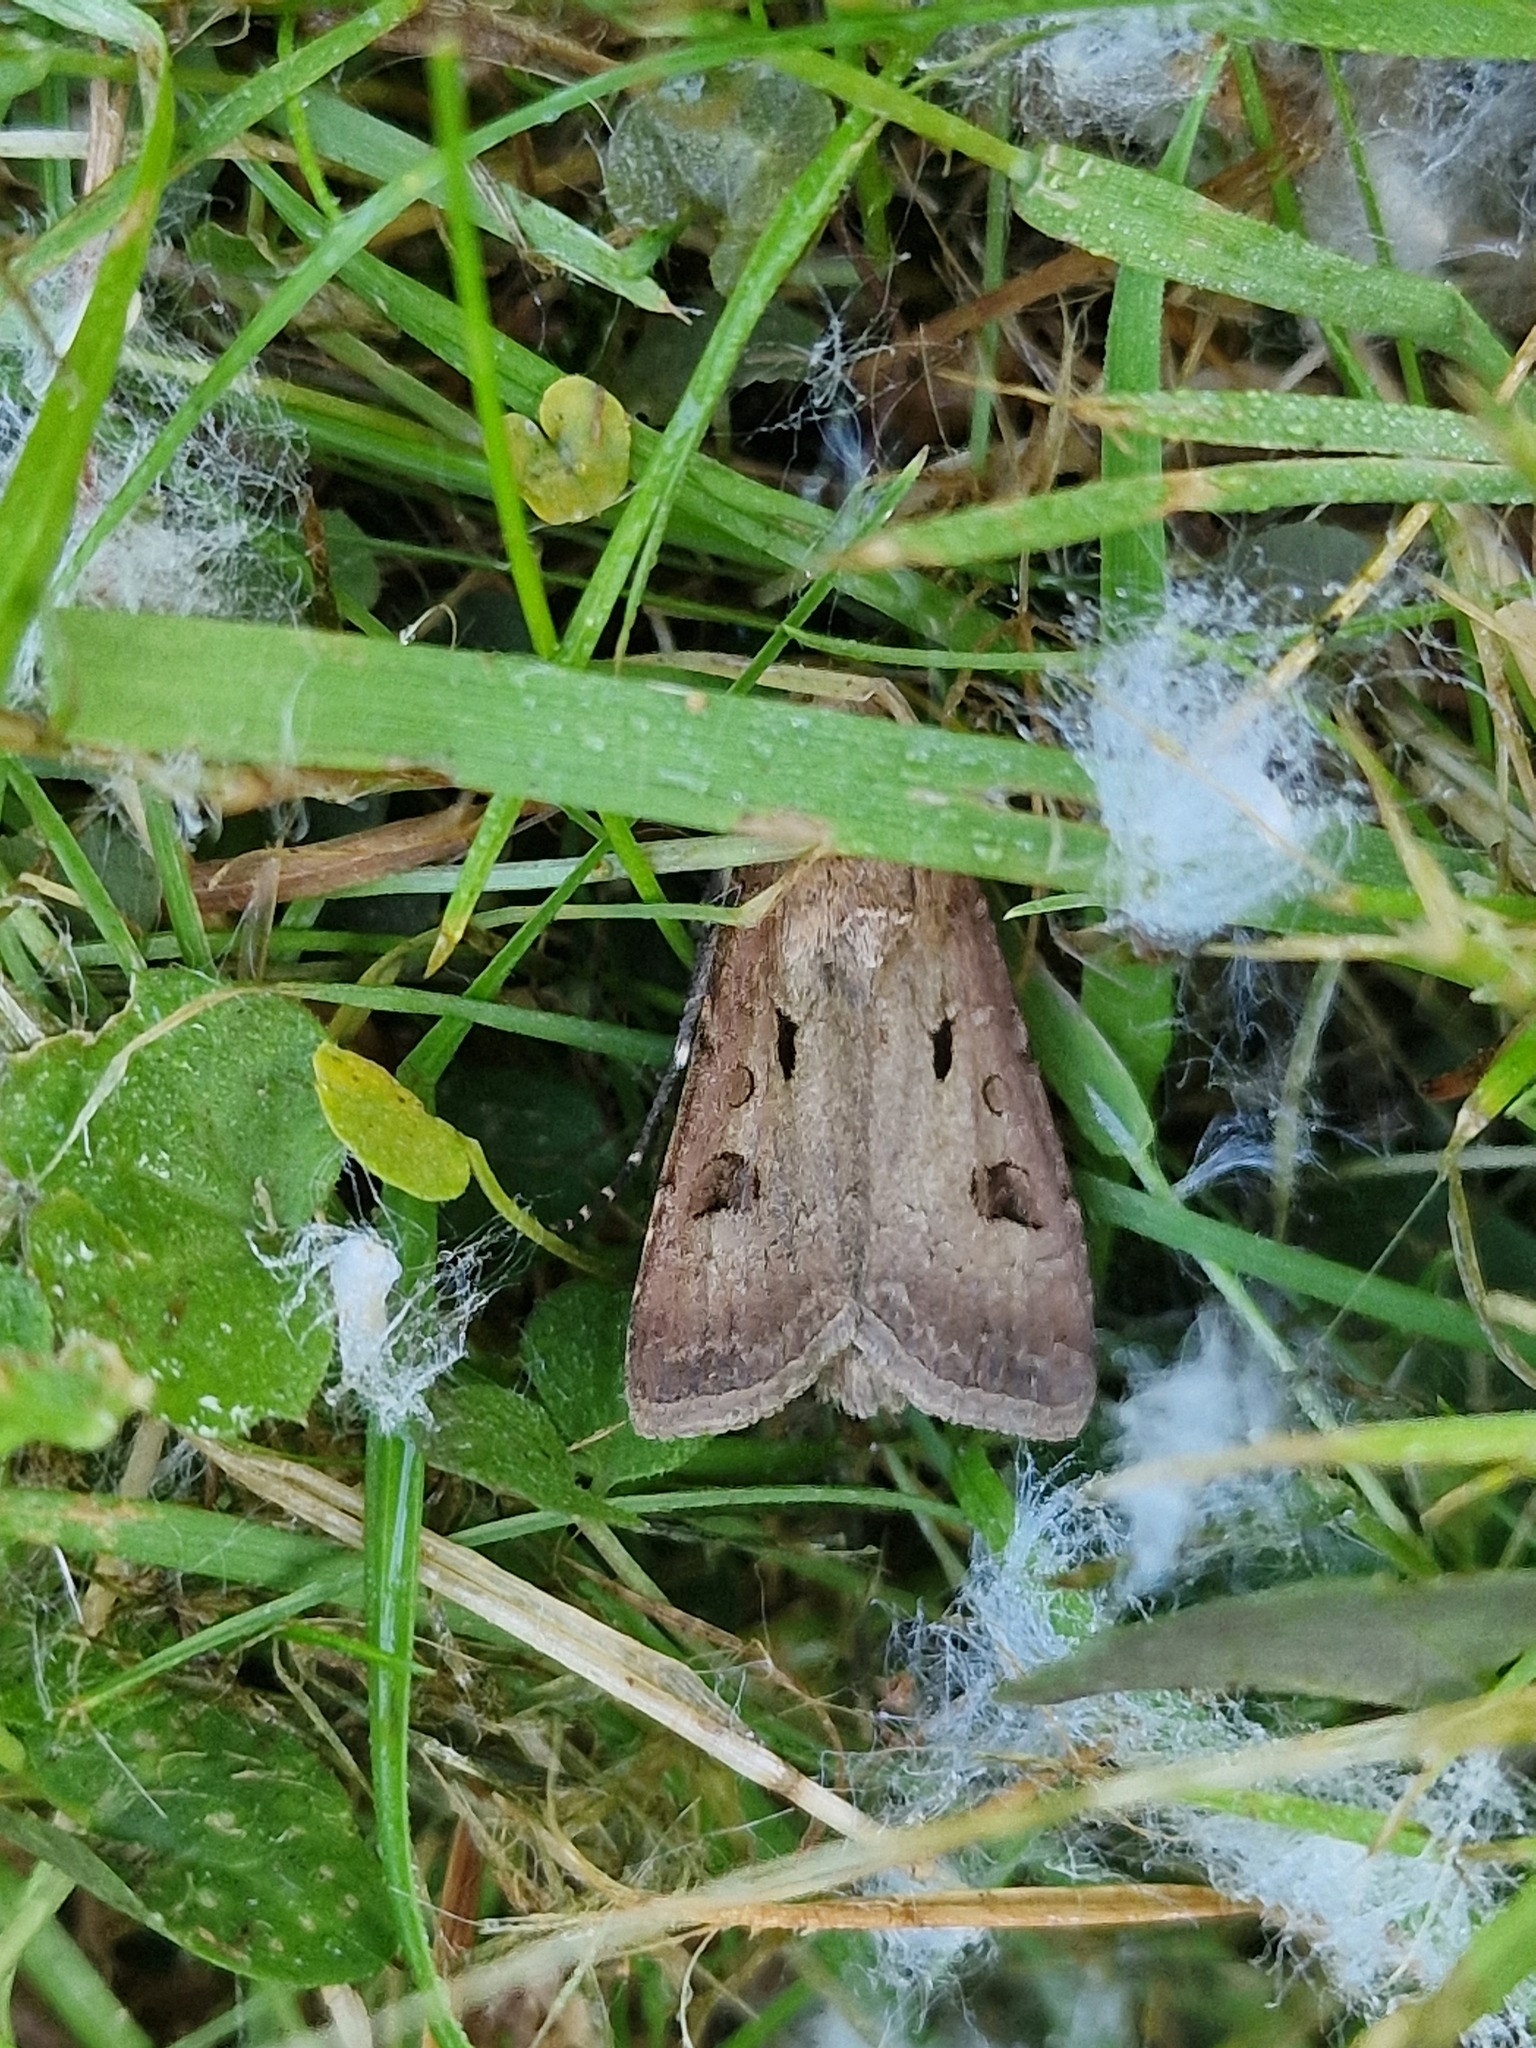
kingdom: Animalia
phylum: Arthropoda
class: Insecta
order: Lepidoptera
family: Noctuidae
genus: Agrotis
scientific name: Agrotis exclamationis
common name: Heart and dart
